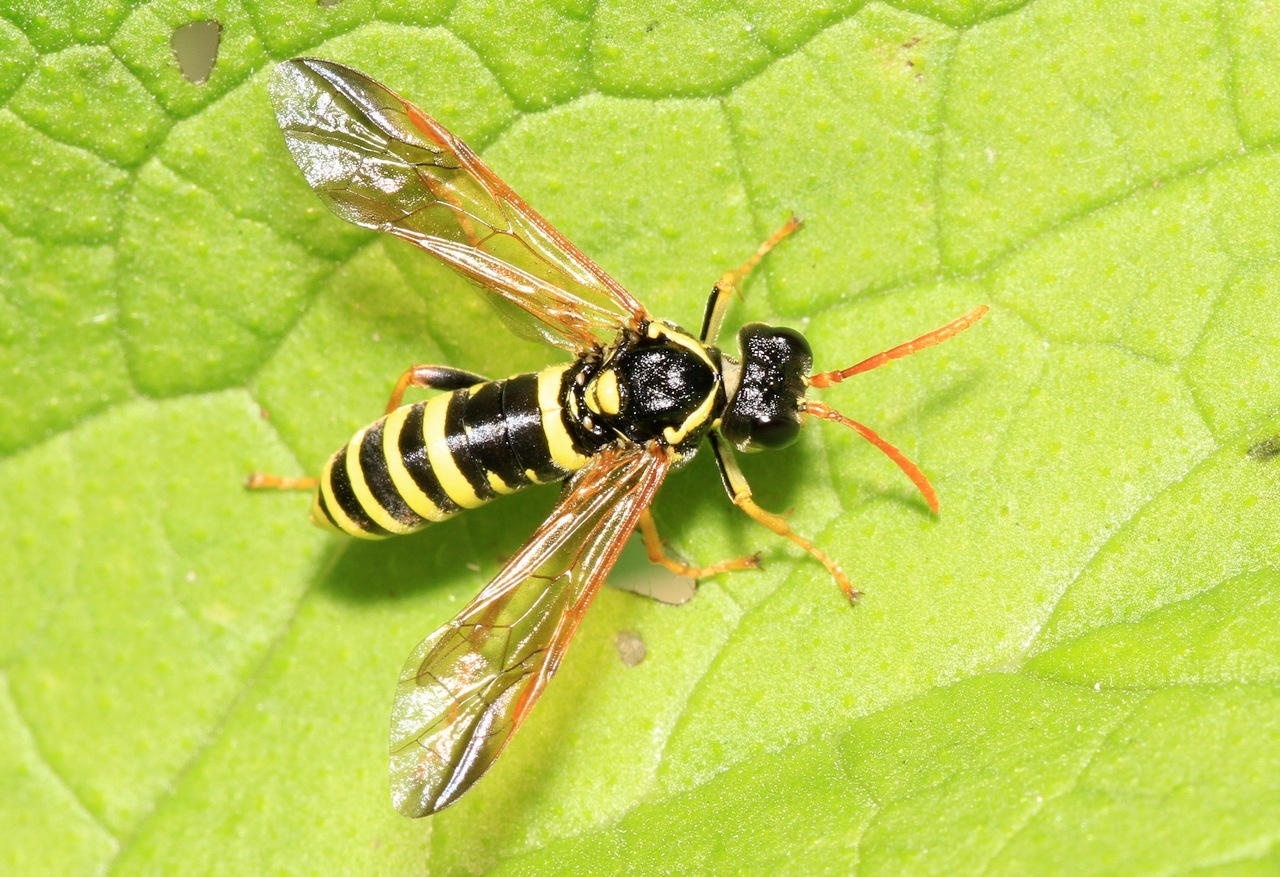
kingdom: Animalia
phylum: Arthropoda
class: Insecta
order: Hymenoptera
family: Tenthredinidae
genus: Tenthredo
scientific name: Tenthredo scrophulariae
